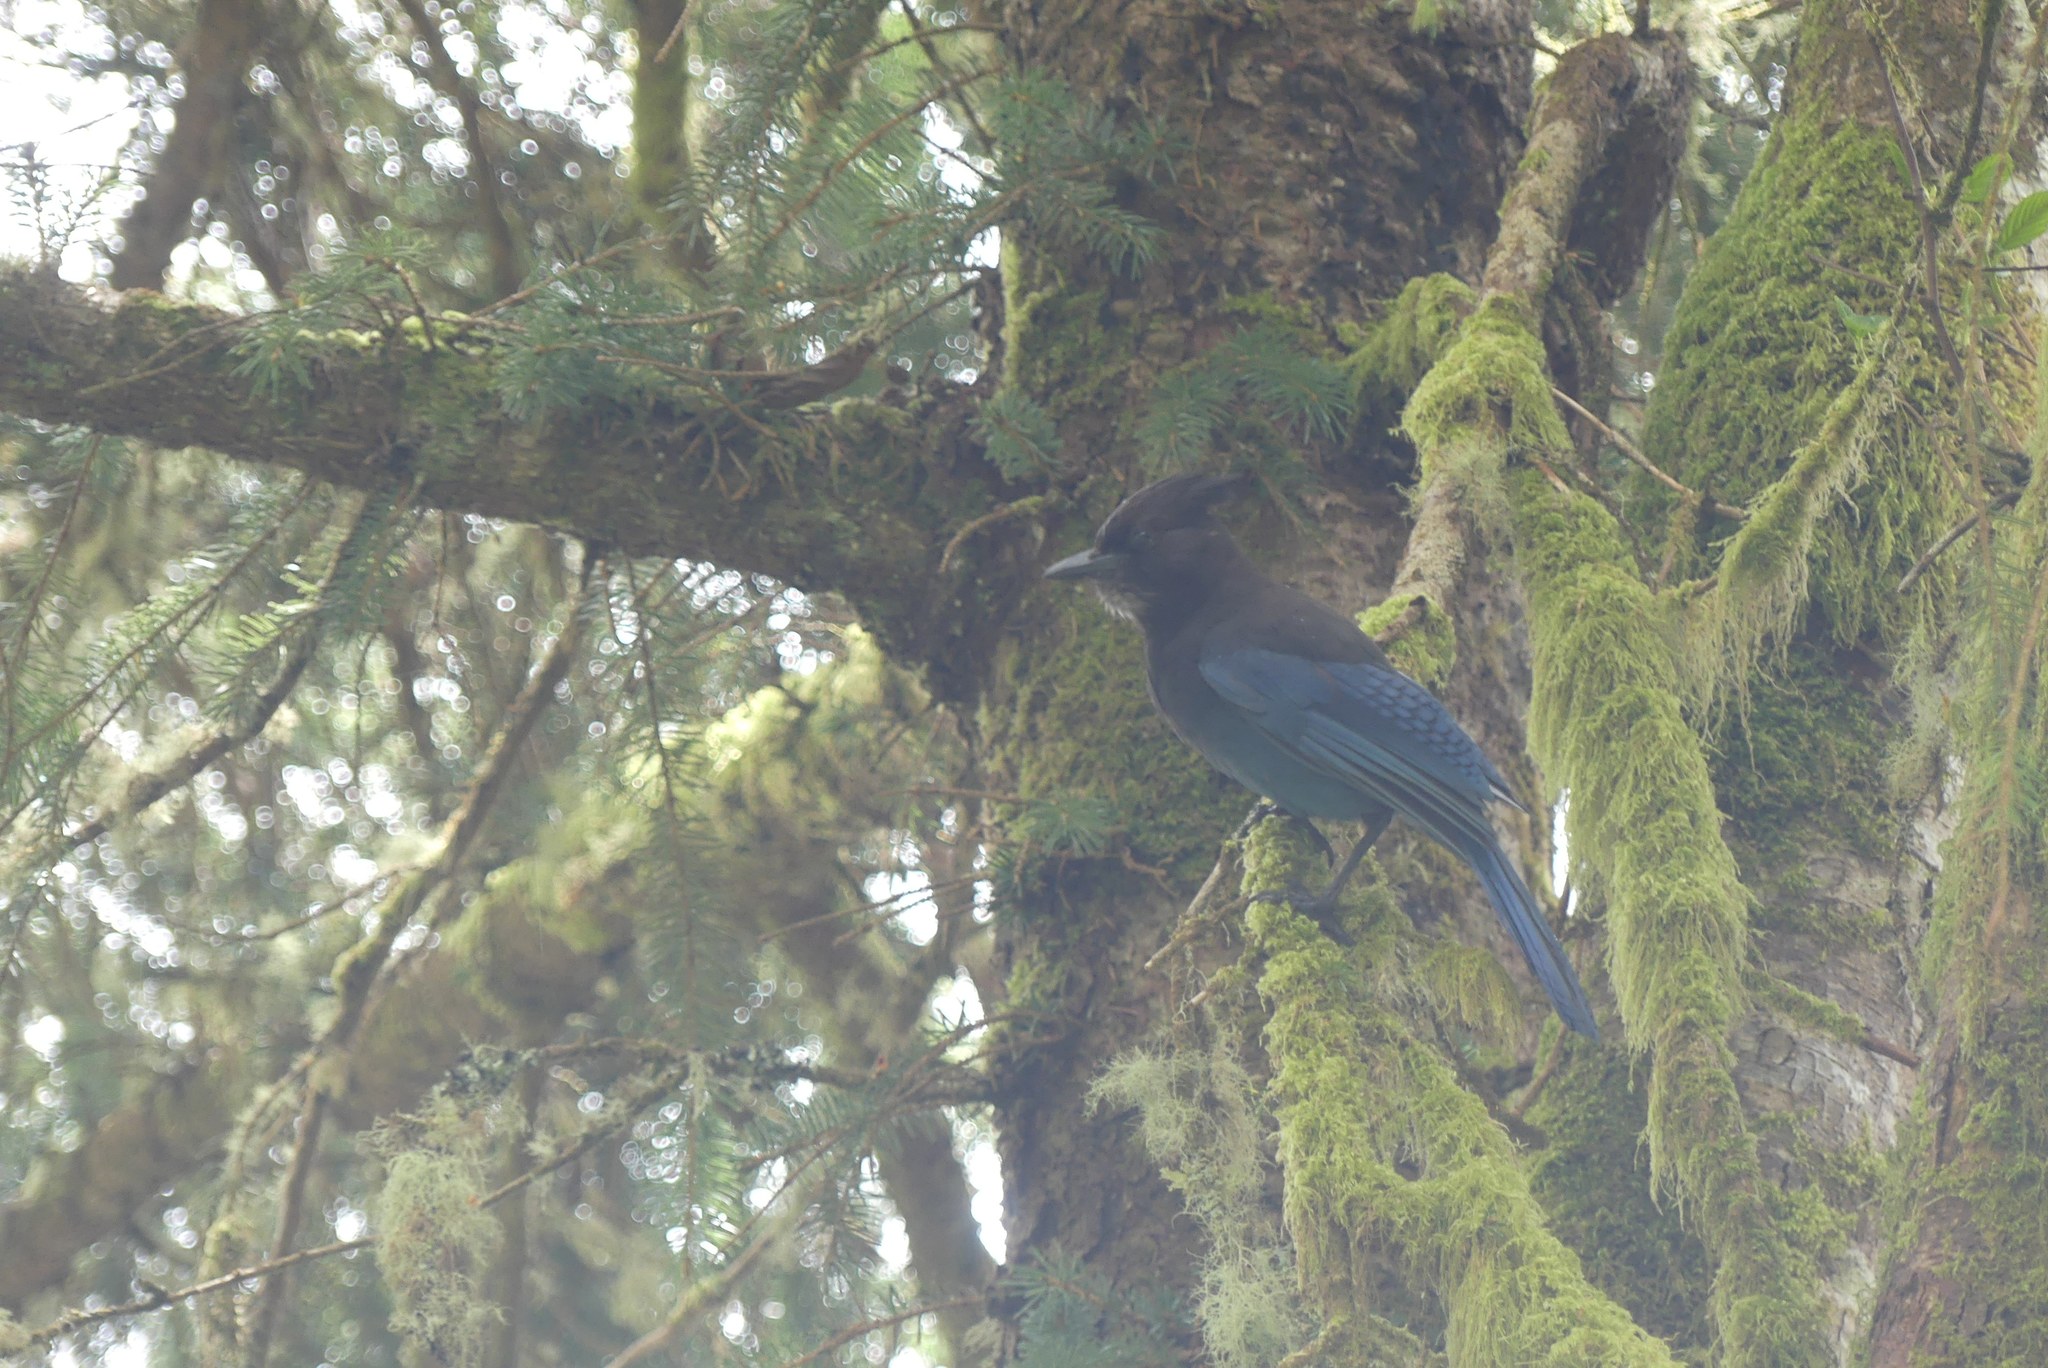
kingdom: Animalia
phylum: Chordata
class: Aves
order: Passeriformes
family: Corvidae
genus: Cyanocitta
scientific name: Cyanocitta stelleri
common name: Steller's jay
